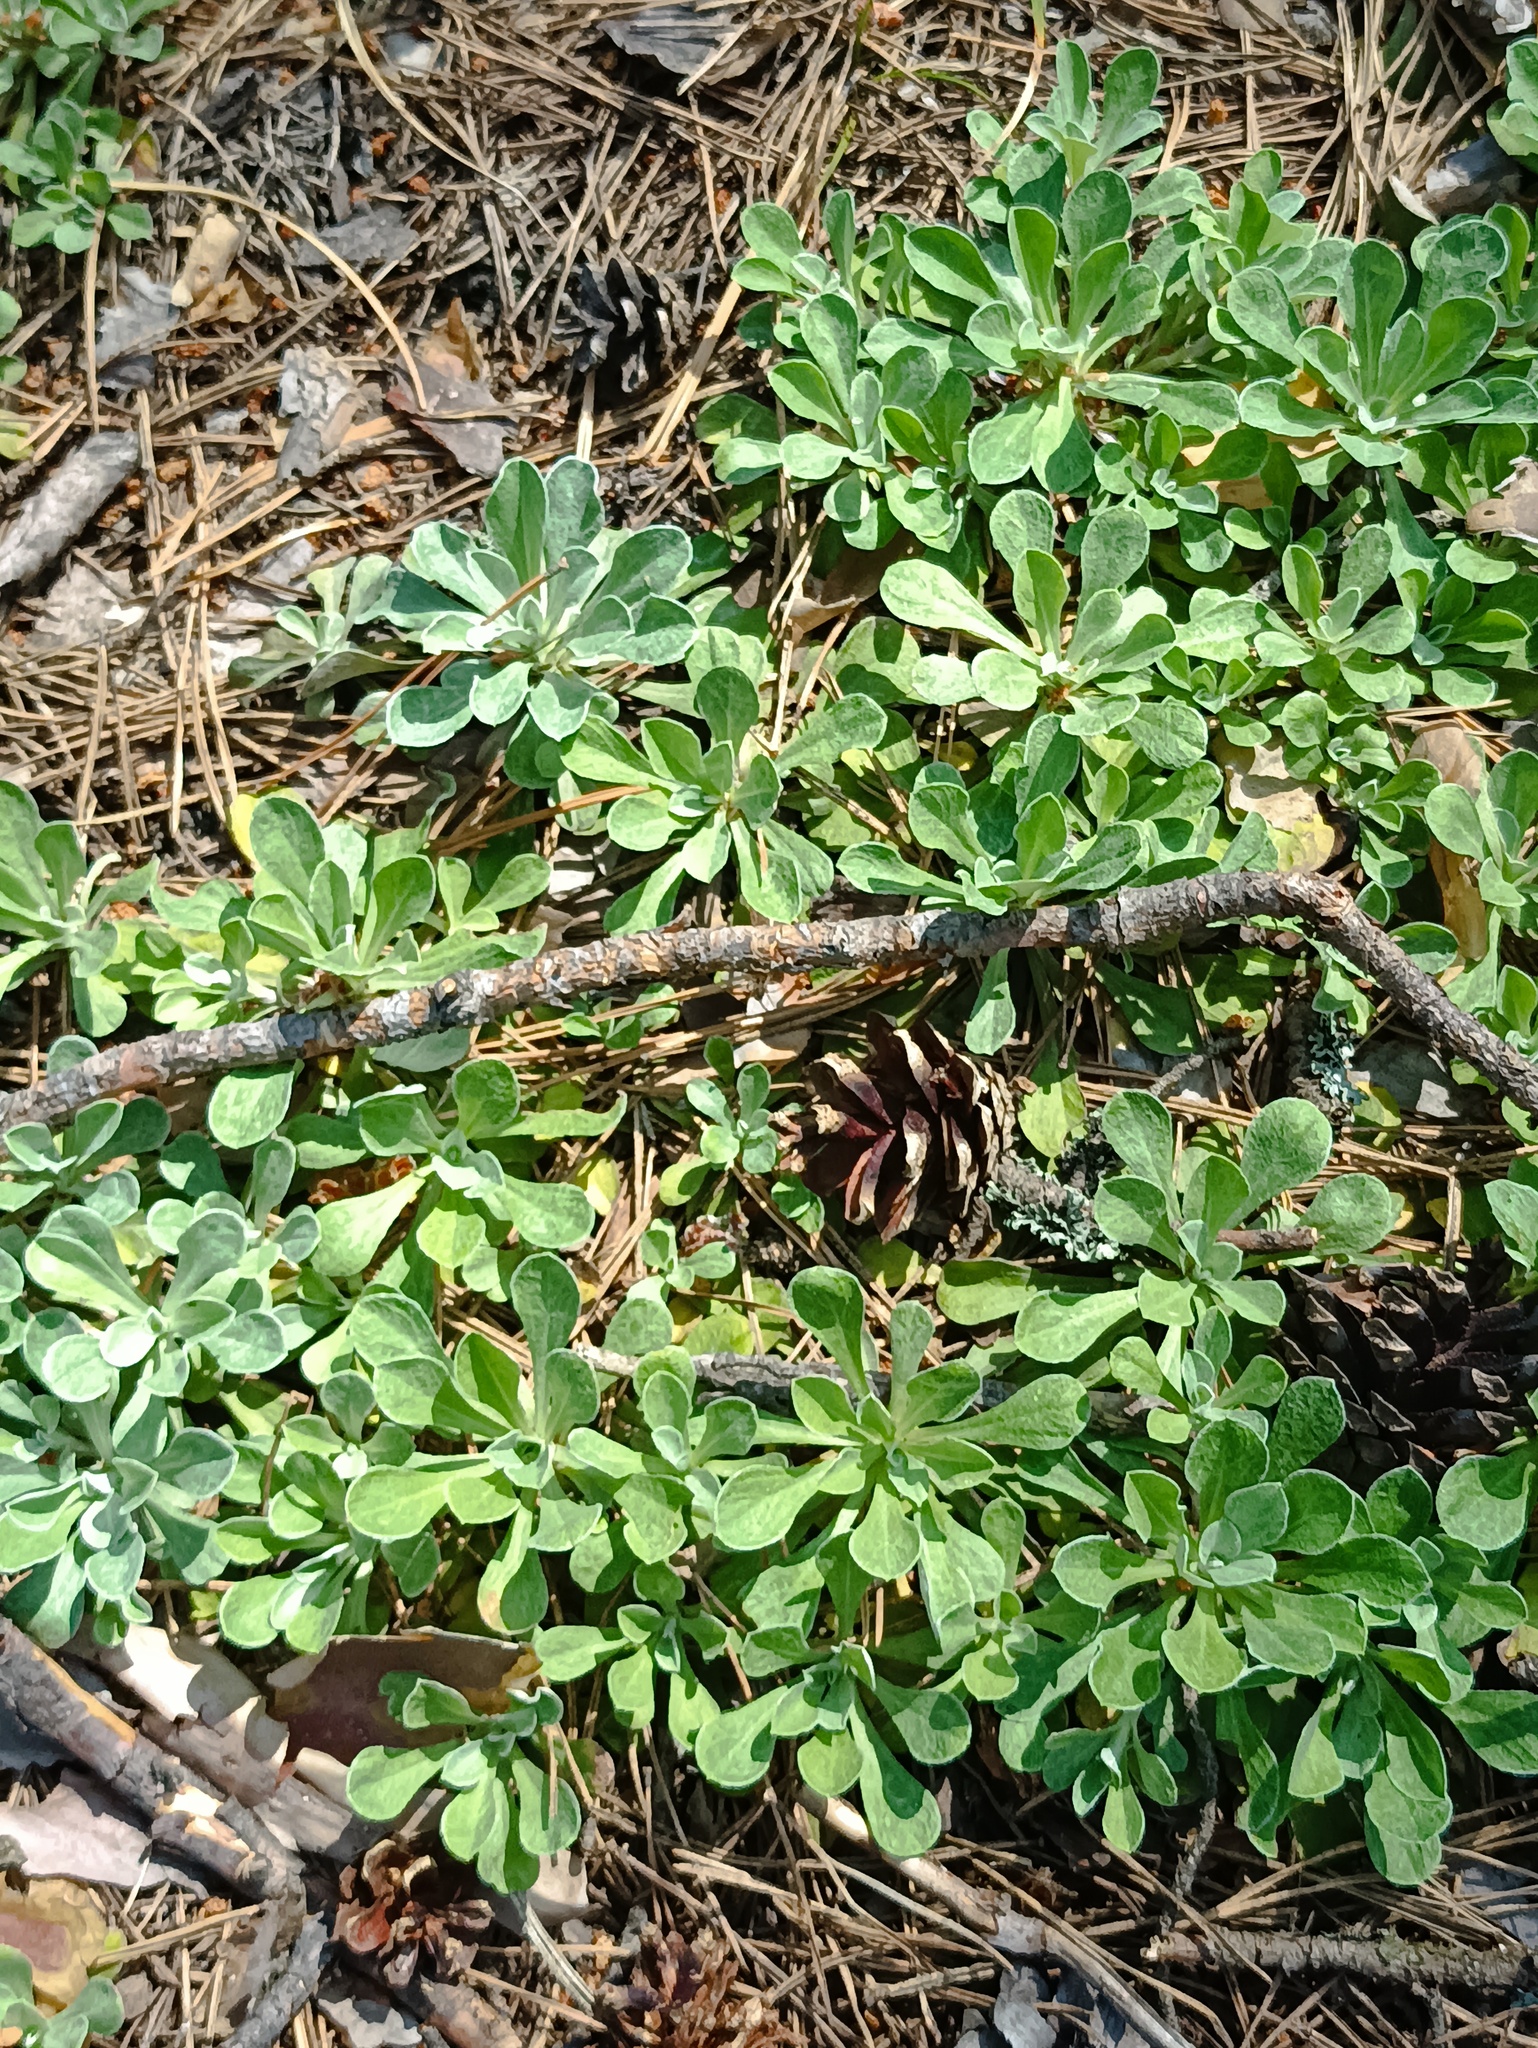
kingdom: Plantae
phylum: Tracheophyta
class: Magnoliopsida
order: Asterales
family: Asteraceae
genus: Antennaria
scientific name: Antennaria dioica
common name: Mountain everlasting
